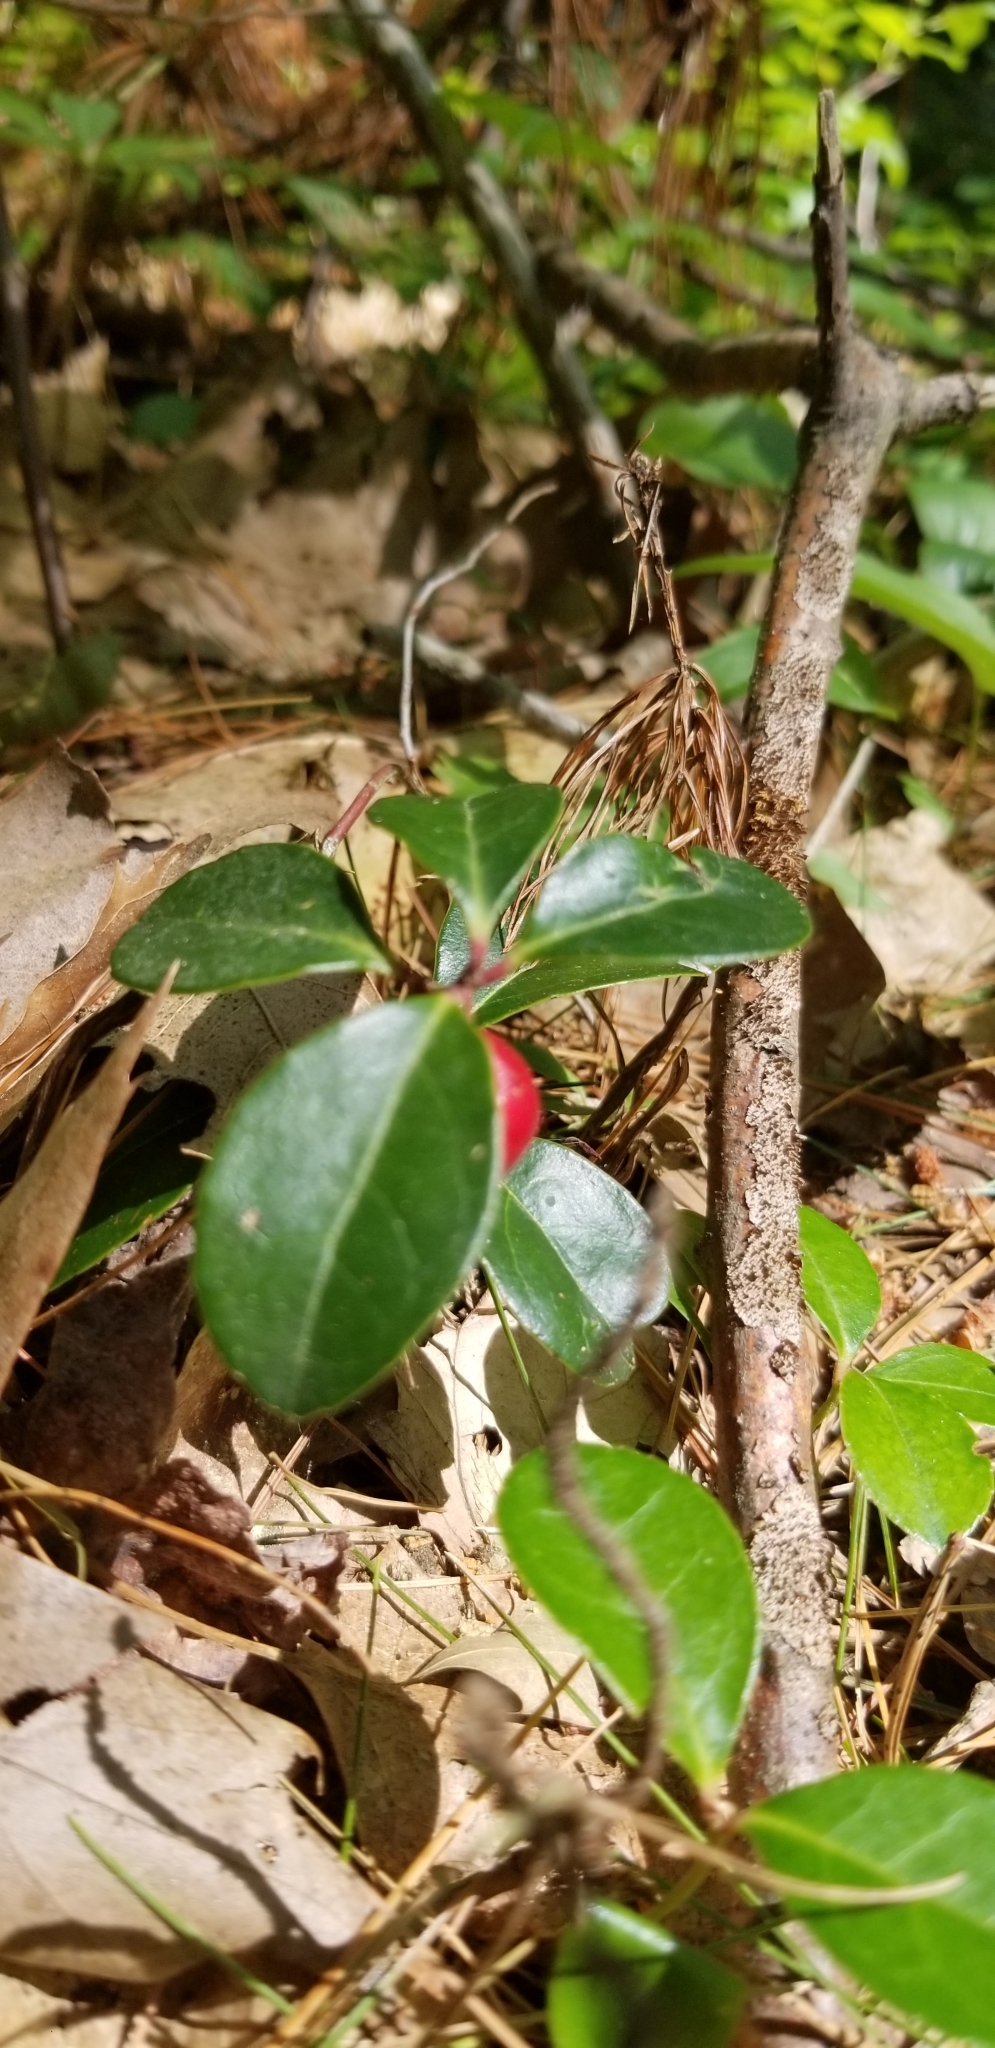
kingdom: Plantae
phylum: Tracheophyta
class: Magnoliopsida
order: Ericales
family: Ericaceae
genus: Gaultheria
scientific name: Gaultheria procumbens
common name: Checkerberry
